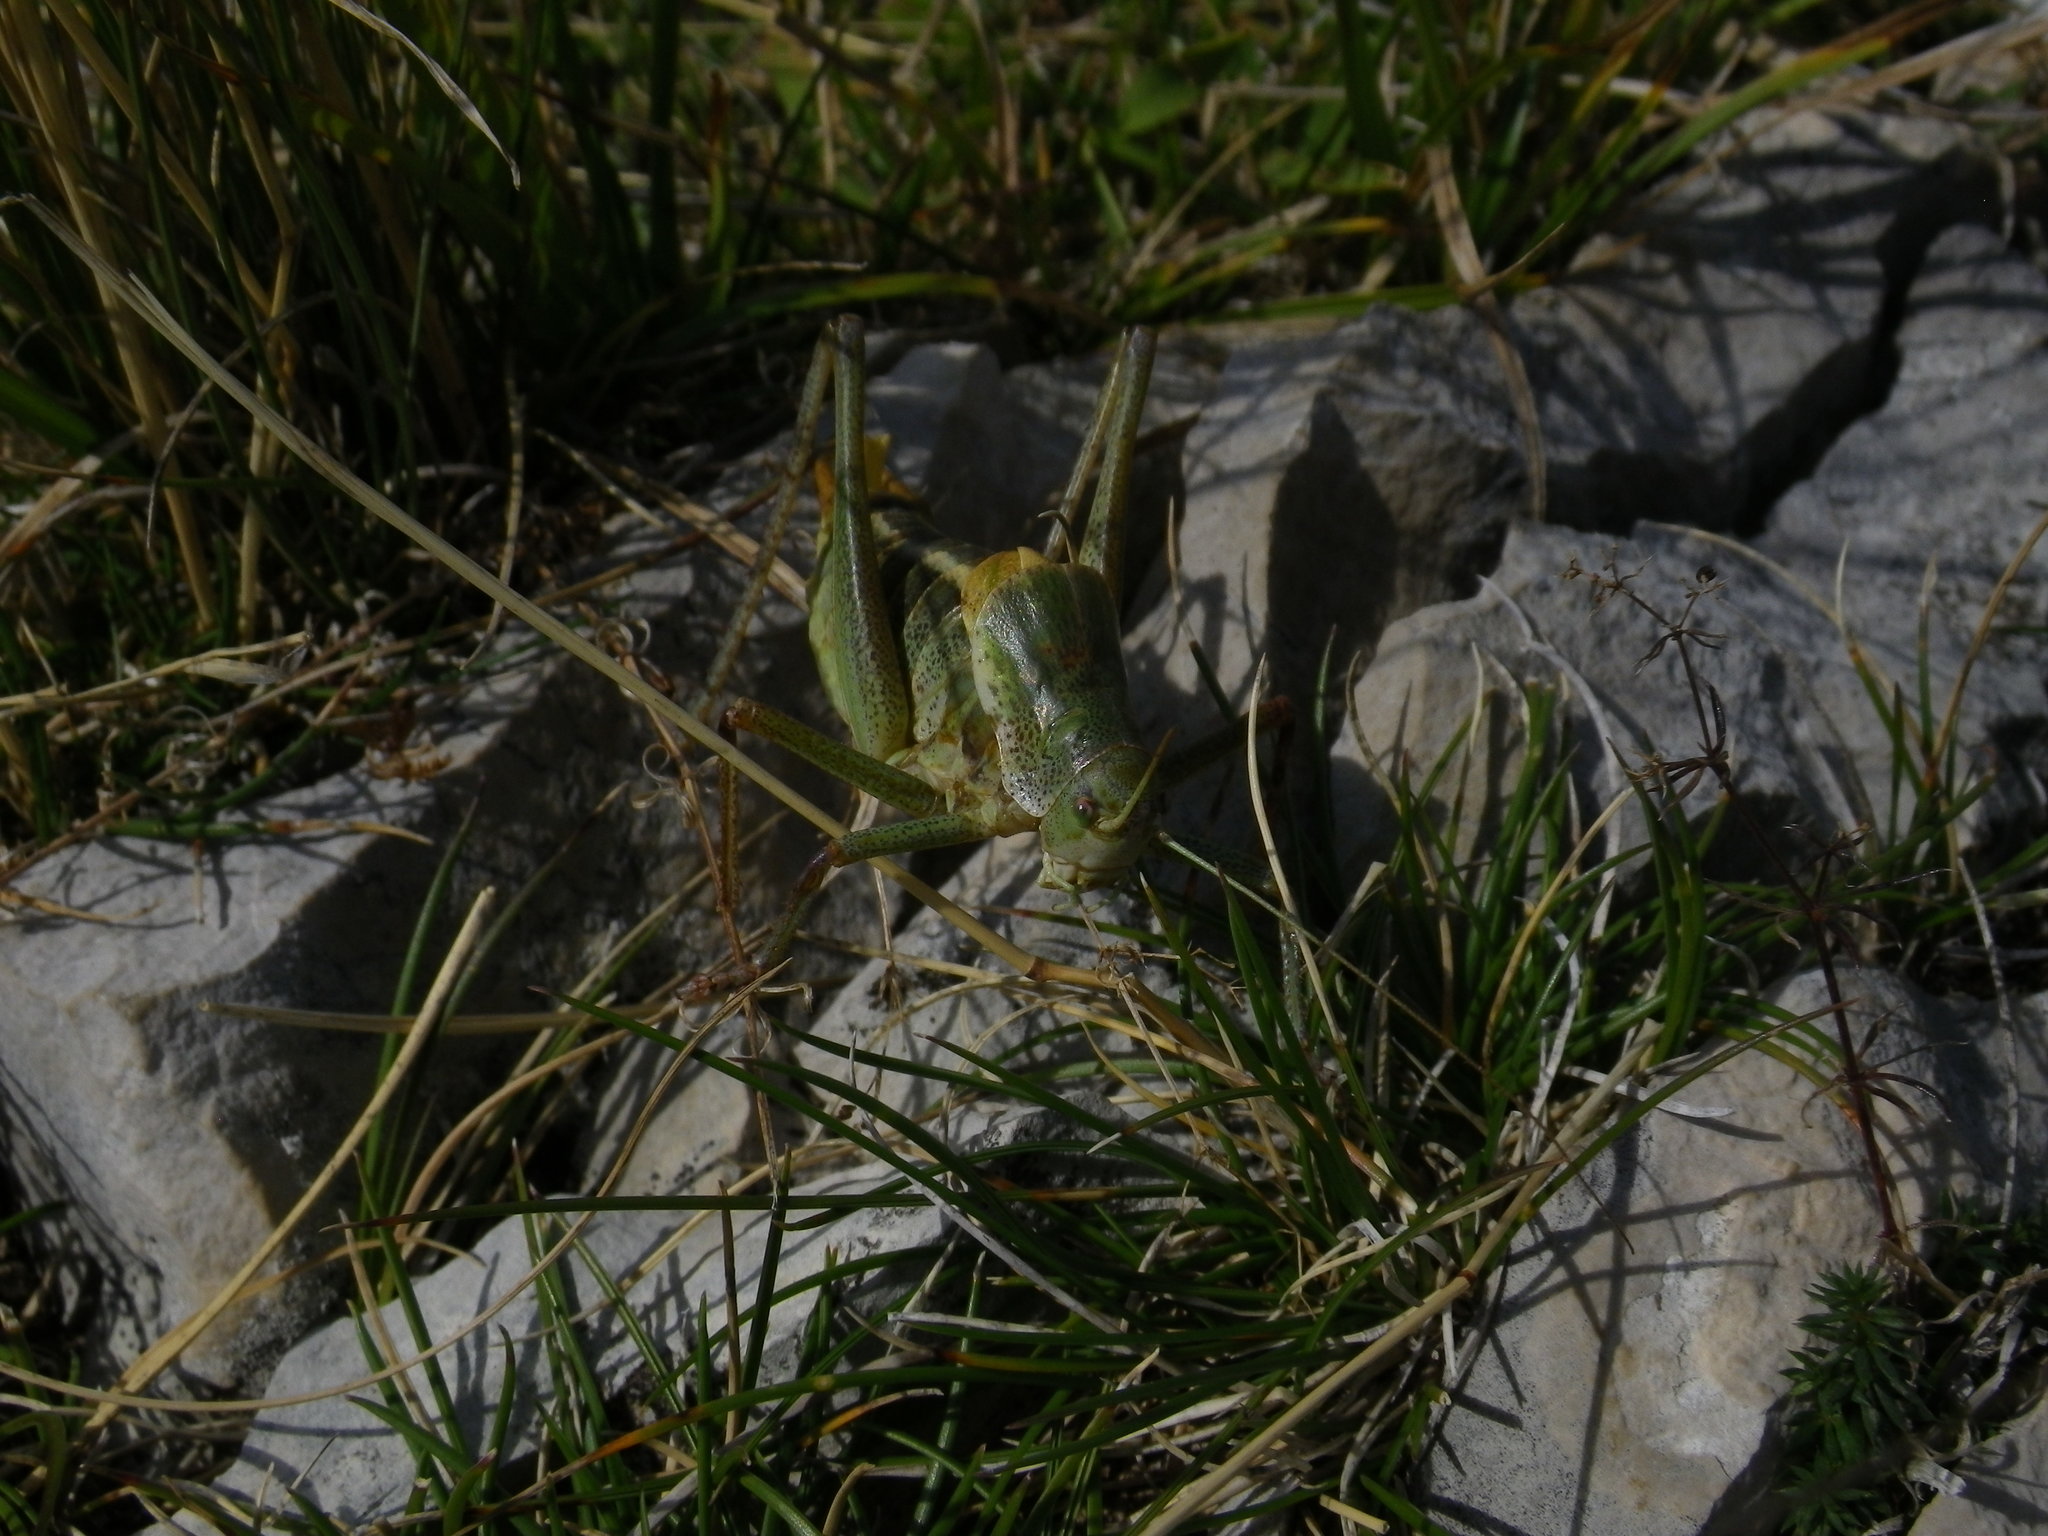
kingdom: Animalia
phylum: Arthropoda
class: Insecta
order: Orthoptera
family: Tettigoniidae
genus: Polysarcus
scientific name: Polysarcus denticauda
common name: Large saw-tailed bush-cricket
